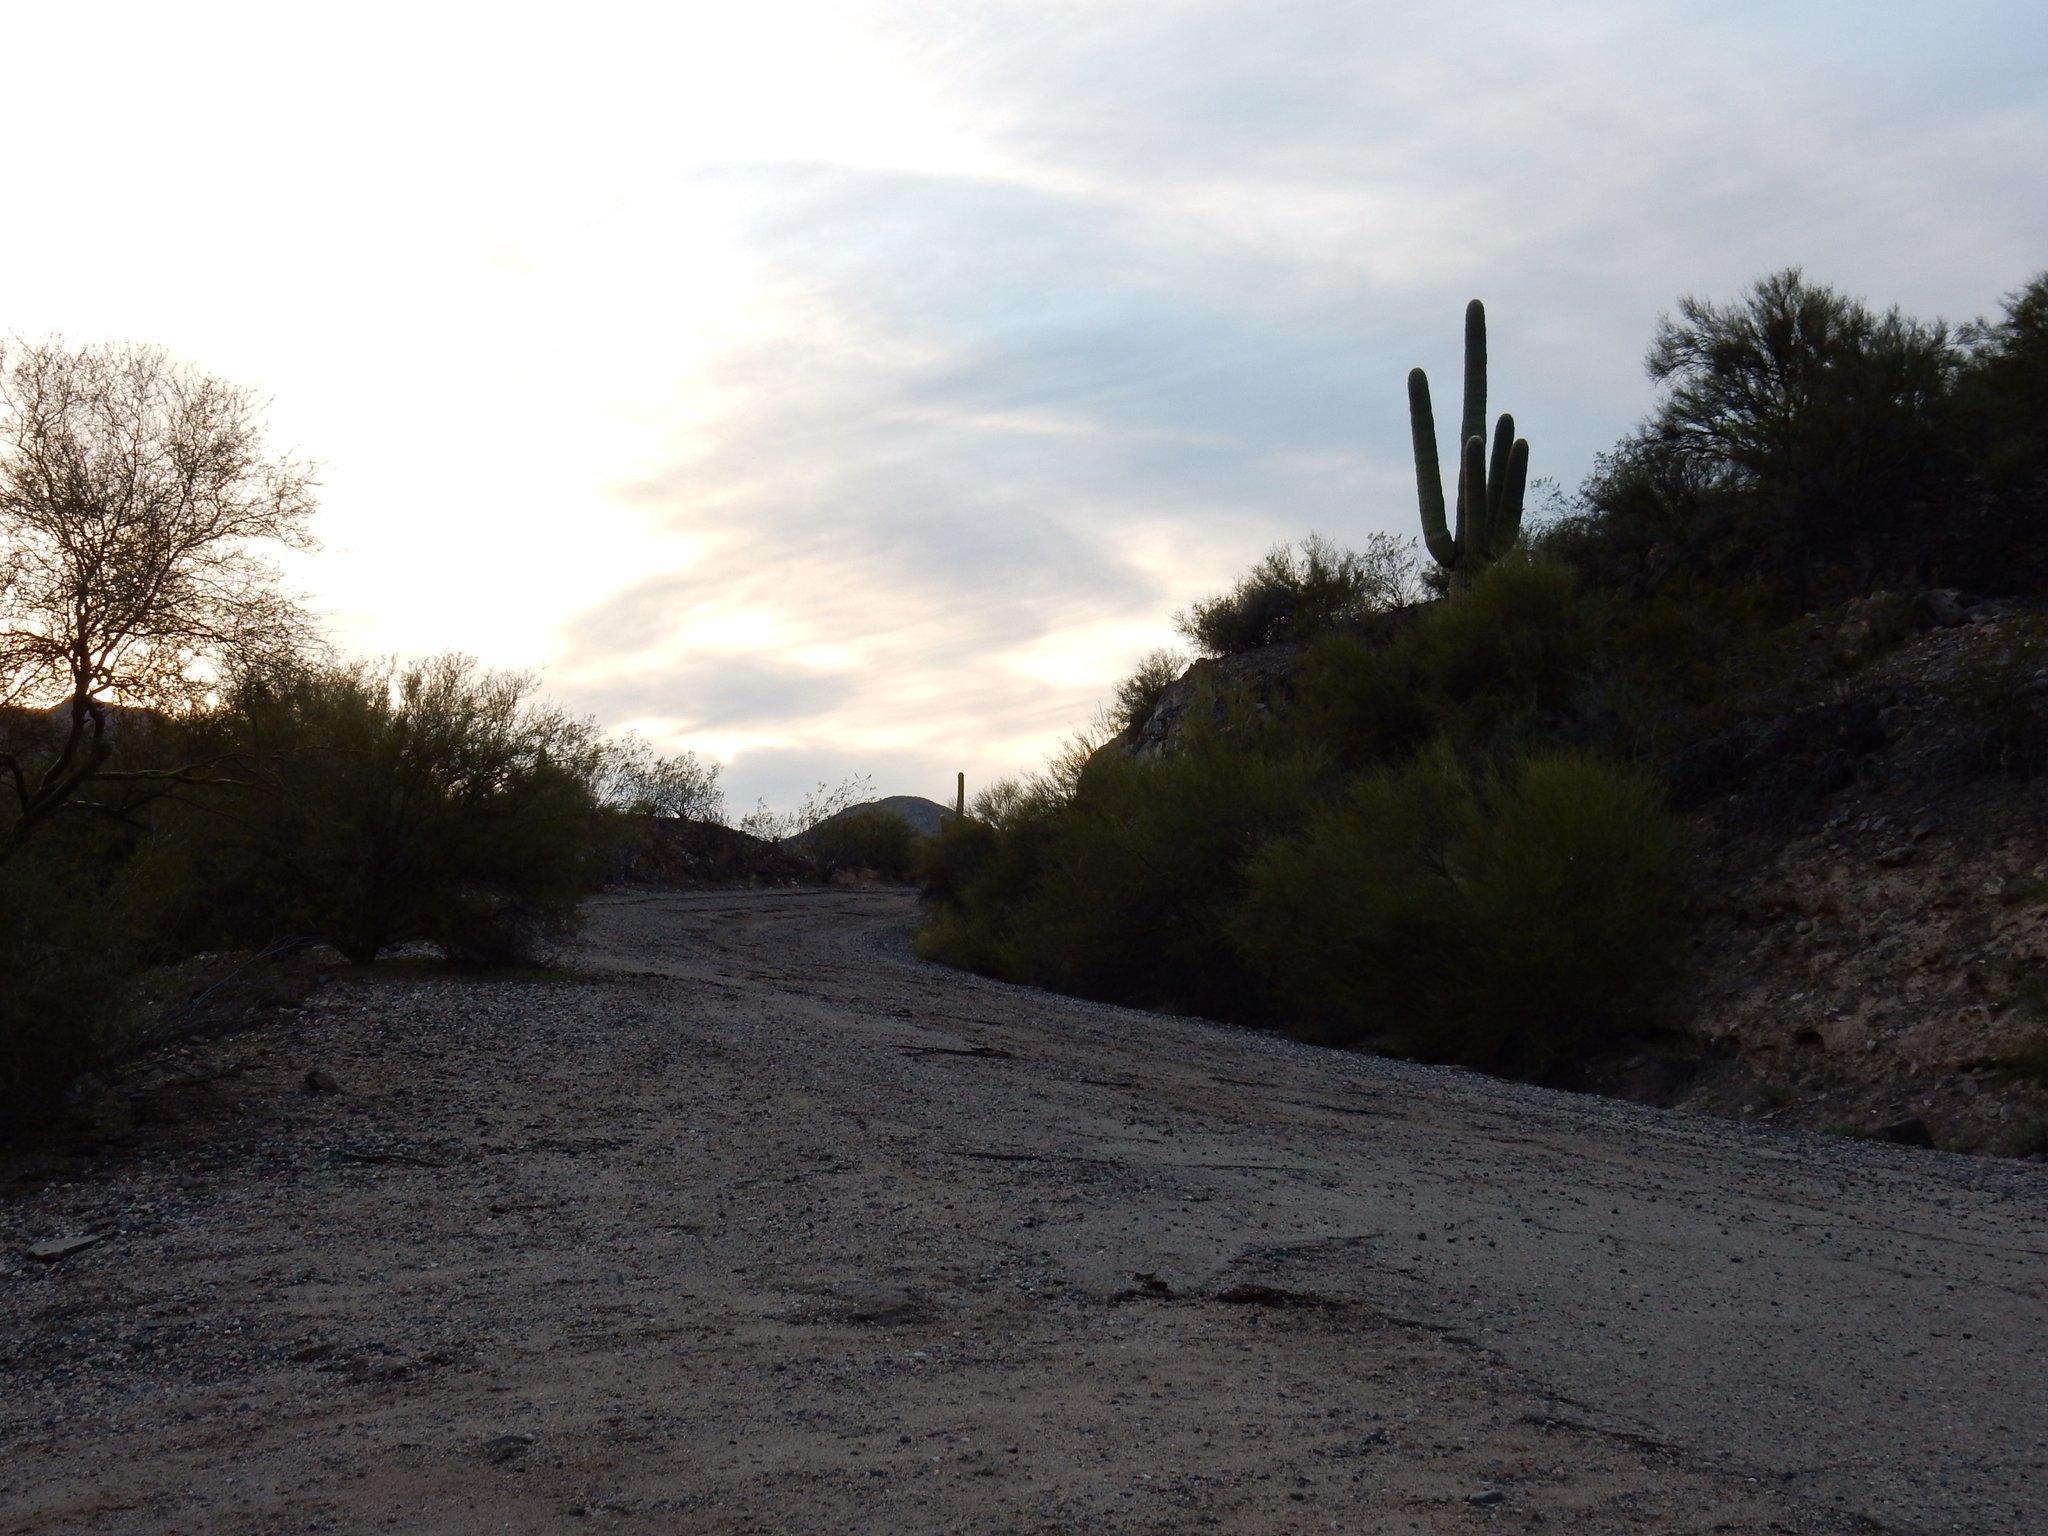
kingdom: Plantae
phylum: Tracheophyta
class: Magnoliopsida
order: Caryophyllales
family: Cactaceae
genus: Carnegiea
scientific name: Carnegiea gigantea
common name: Saguaro
